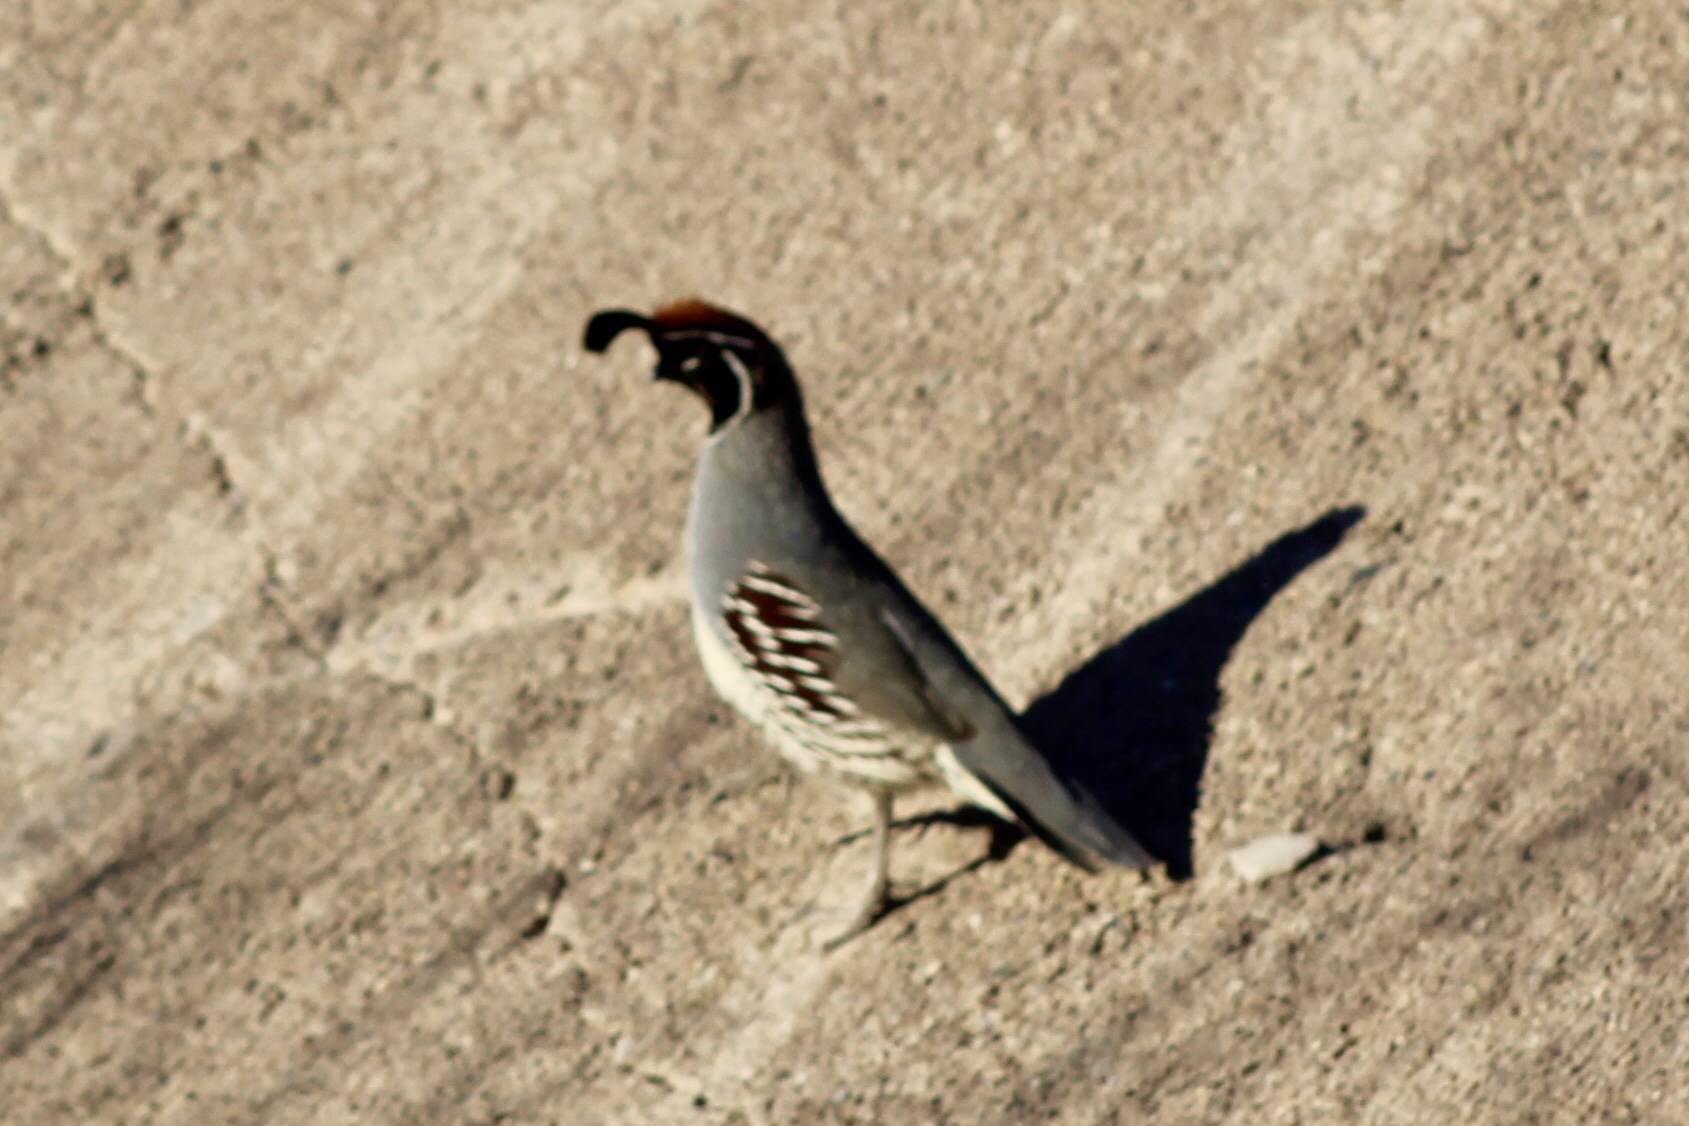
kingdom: Animalia
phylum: Chordata
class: Aves
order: Galliformes
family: Odontophoridae
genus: Callipepla
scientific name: Callipepla gambelii
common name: Gambel's quail
